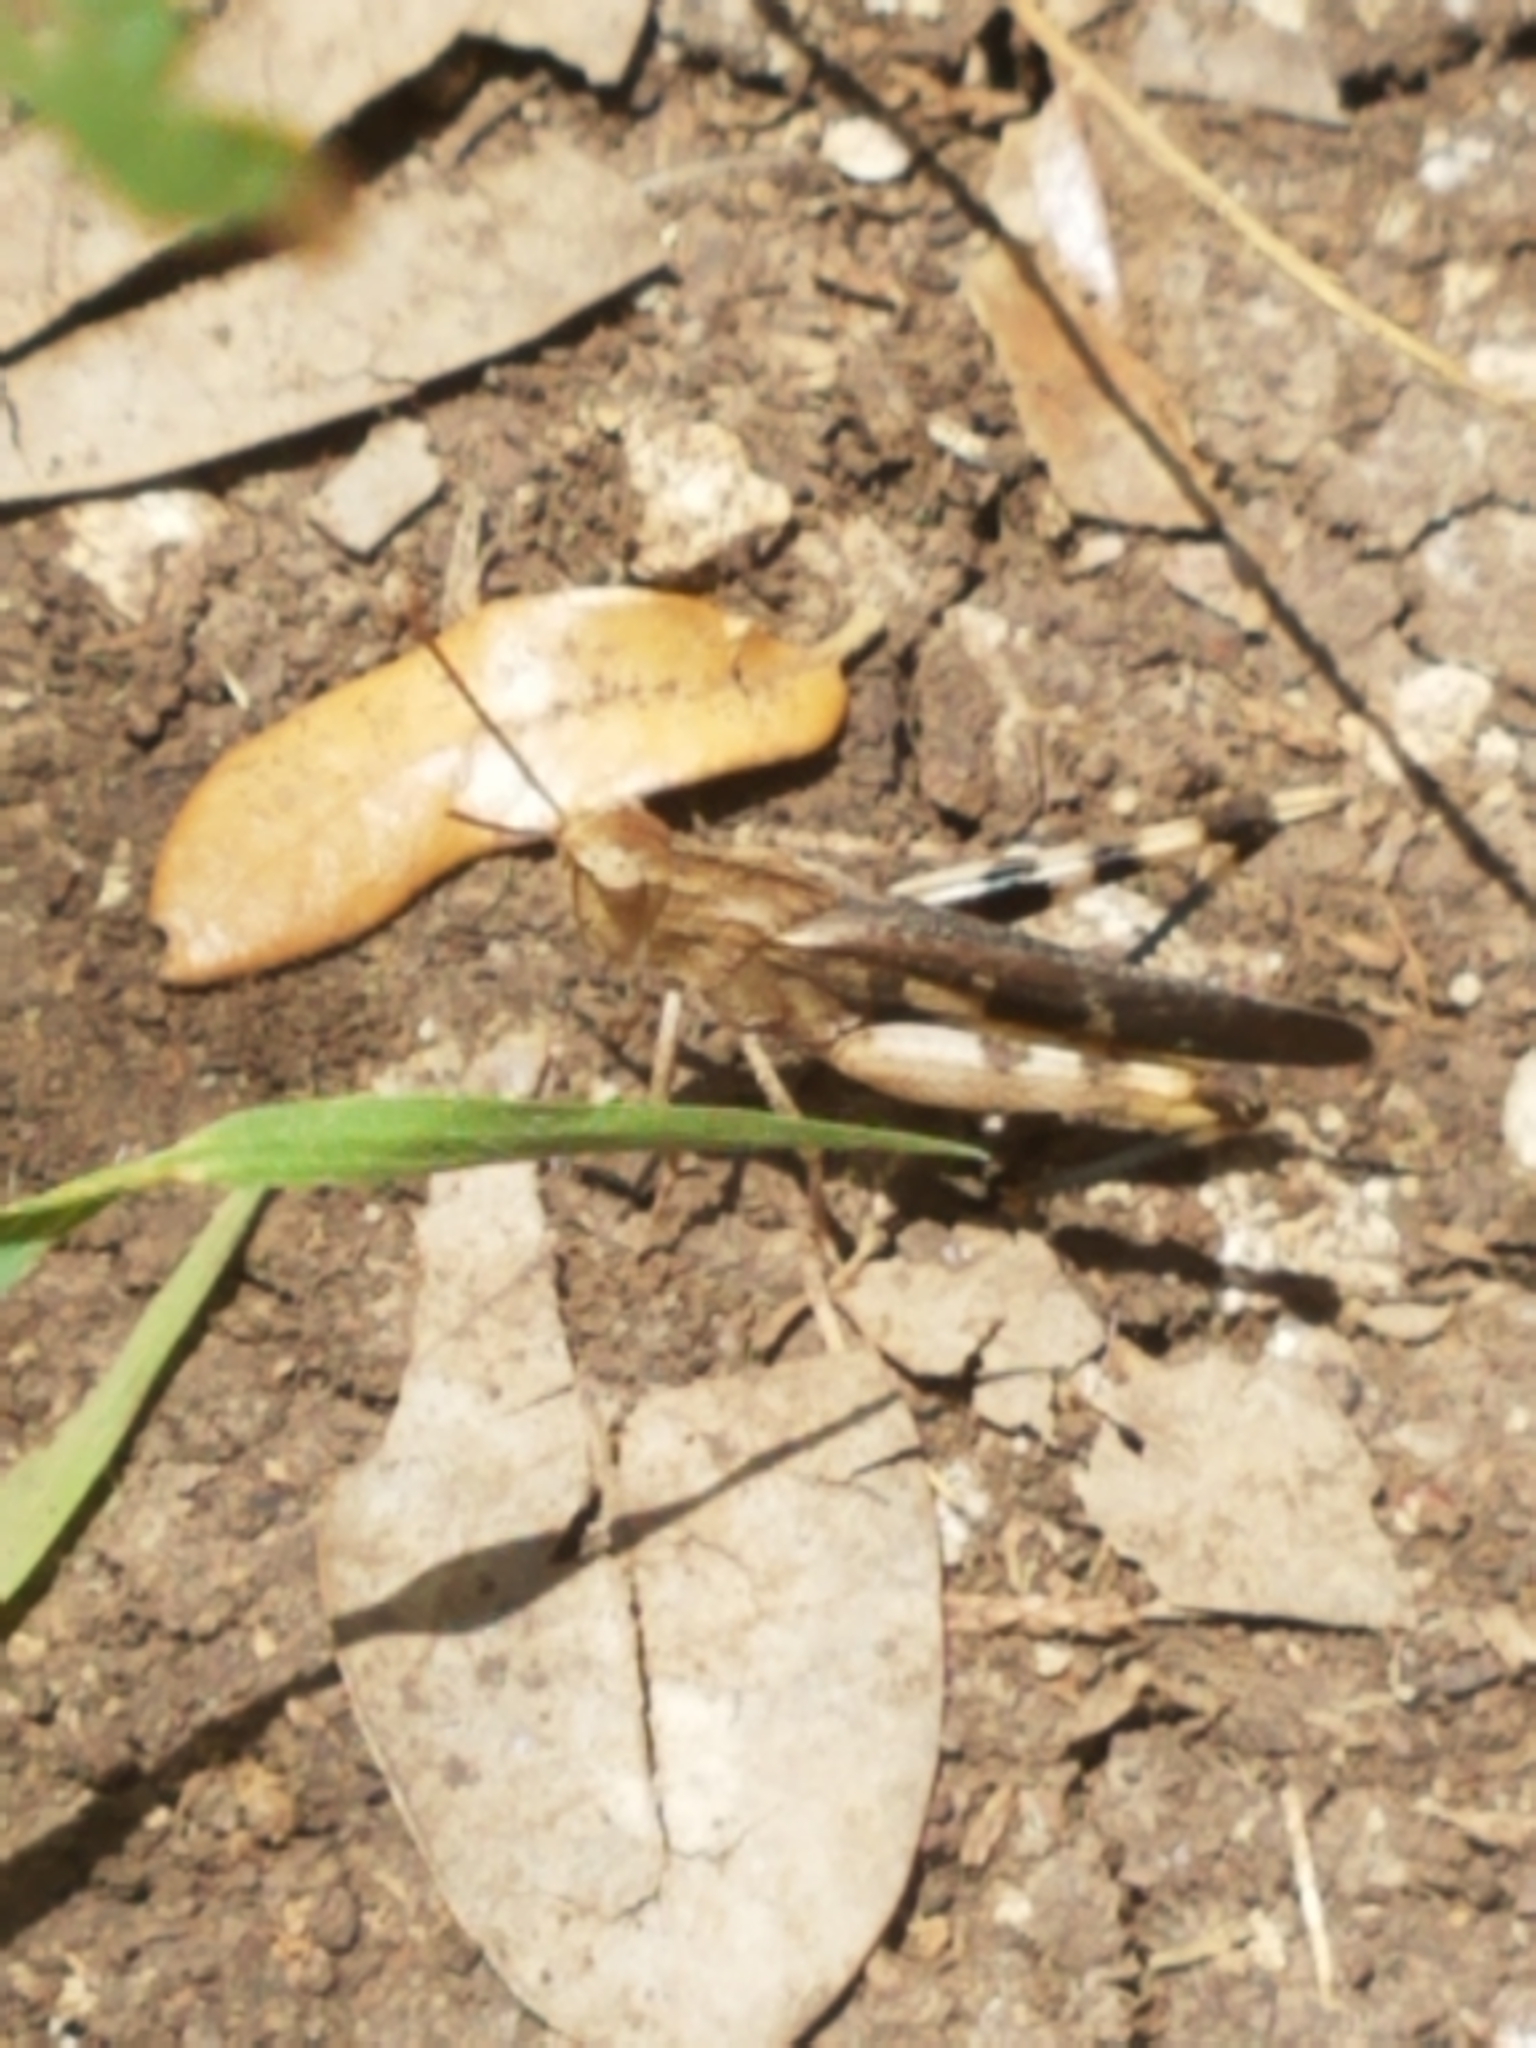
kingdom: Animalia
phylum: Arthropoda
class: Insecta
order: Orthoptera
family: Acrididae
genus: Chortophaga
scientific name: Chortophaga viridifasciata
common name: Green-striped grasshopper
